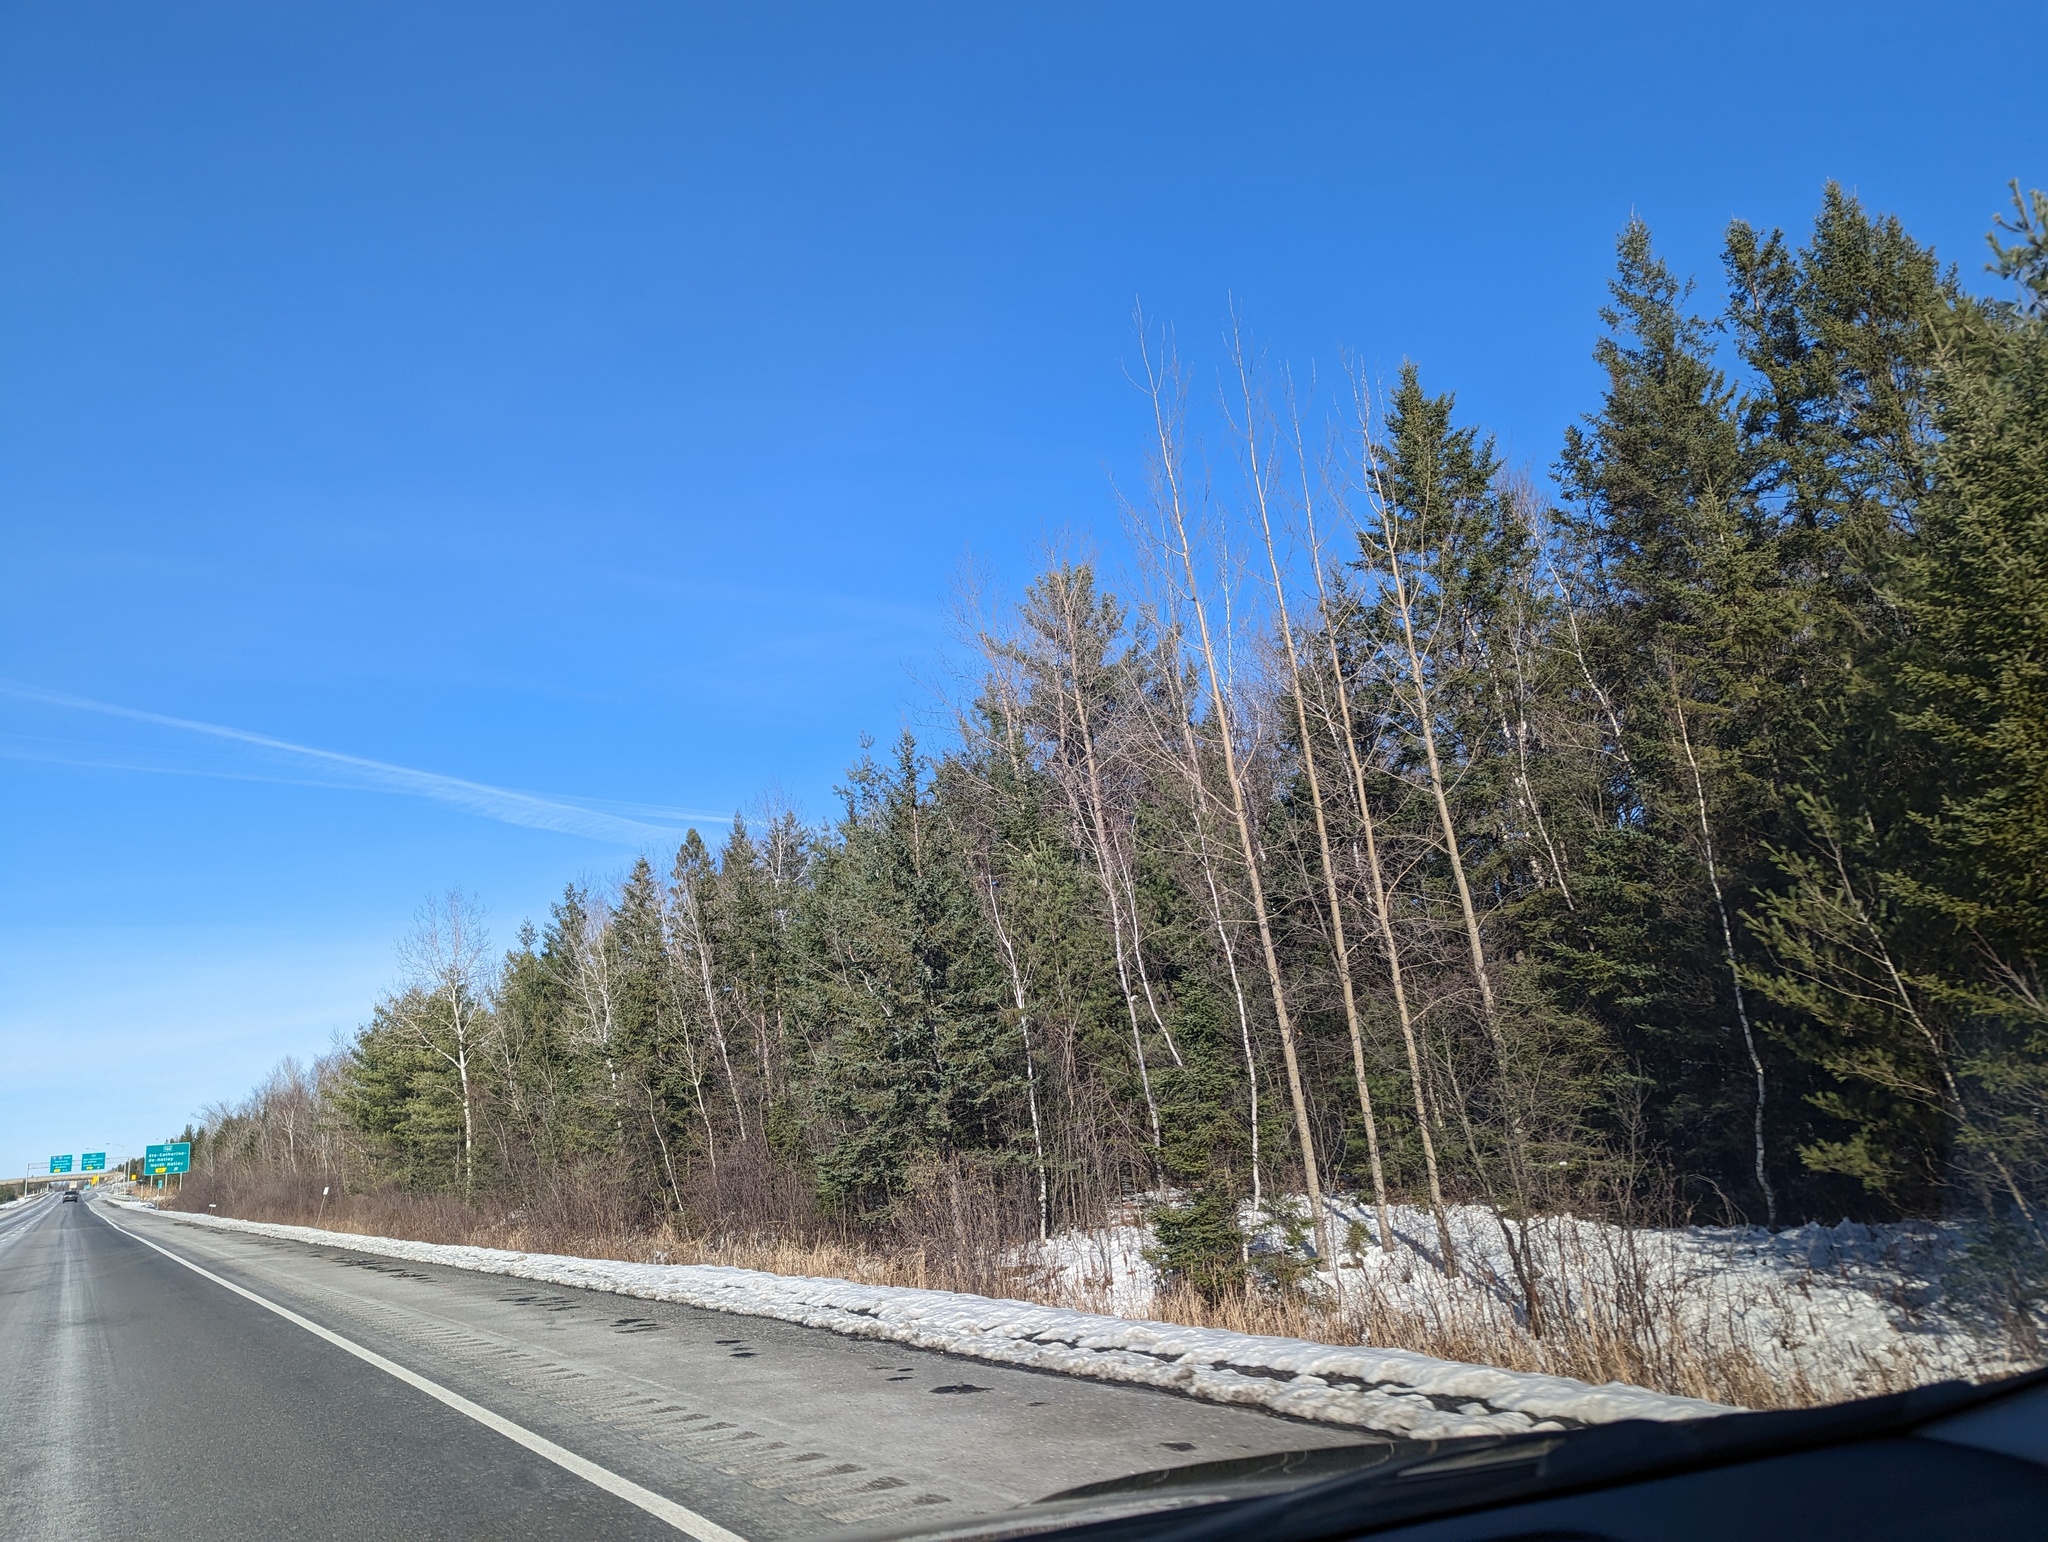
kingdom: Plantae
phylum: Tracheophyta
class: Pinopsida
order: Pinales
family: Pinaceae
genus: Pinus
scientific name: Pinus strobus
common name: Weymouth pine
